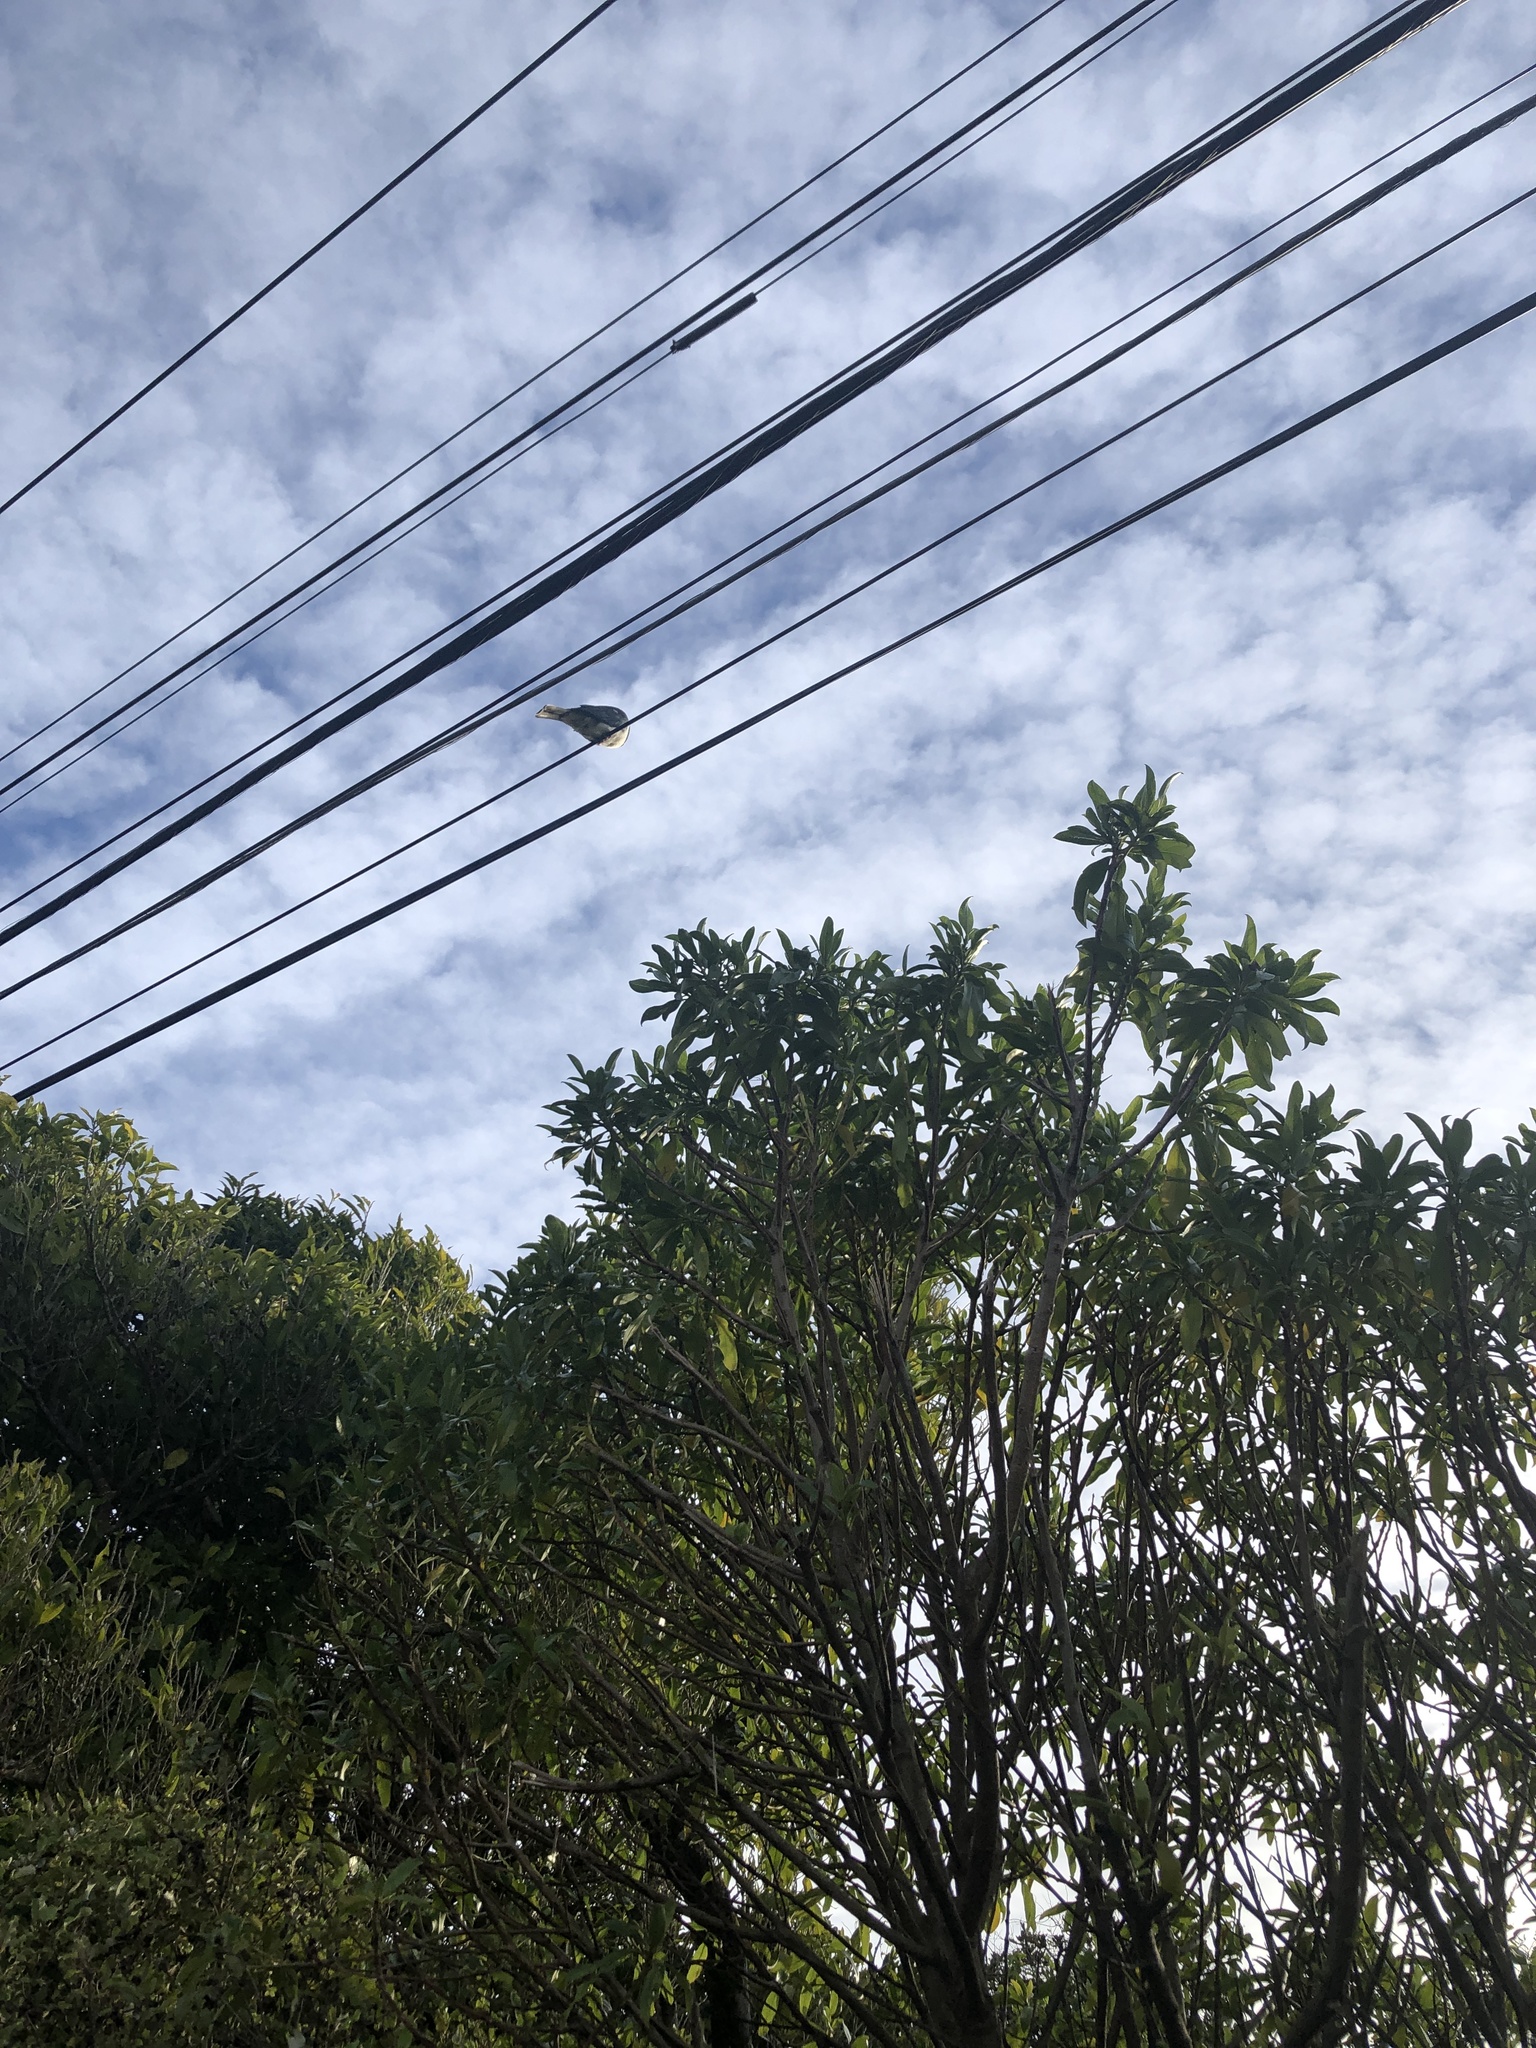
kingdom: Animalia
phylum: Chordata
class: Aves
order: Columbiformes
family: Columbidae
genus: Hemiphaga
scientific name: Hemiphaga novaeseelandiae
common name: New zealand pigeon
